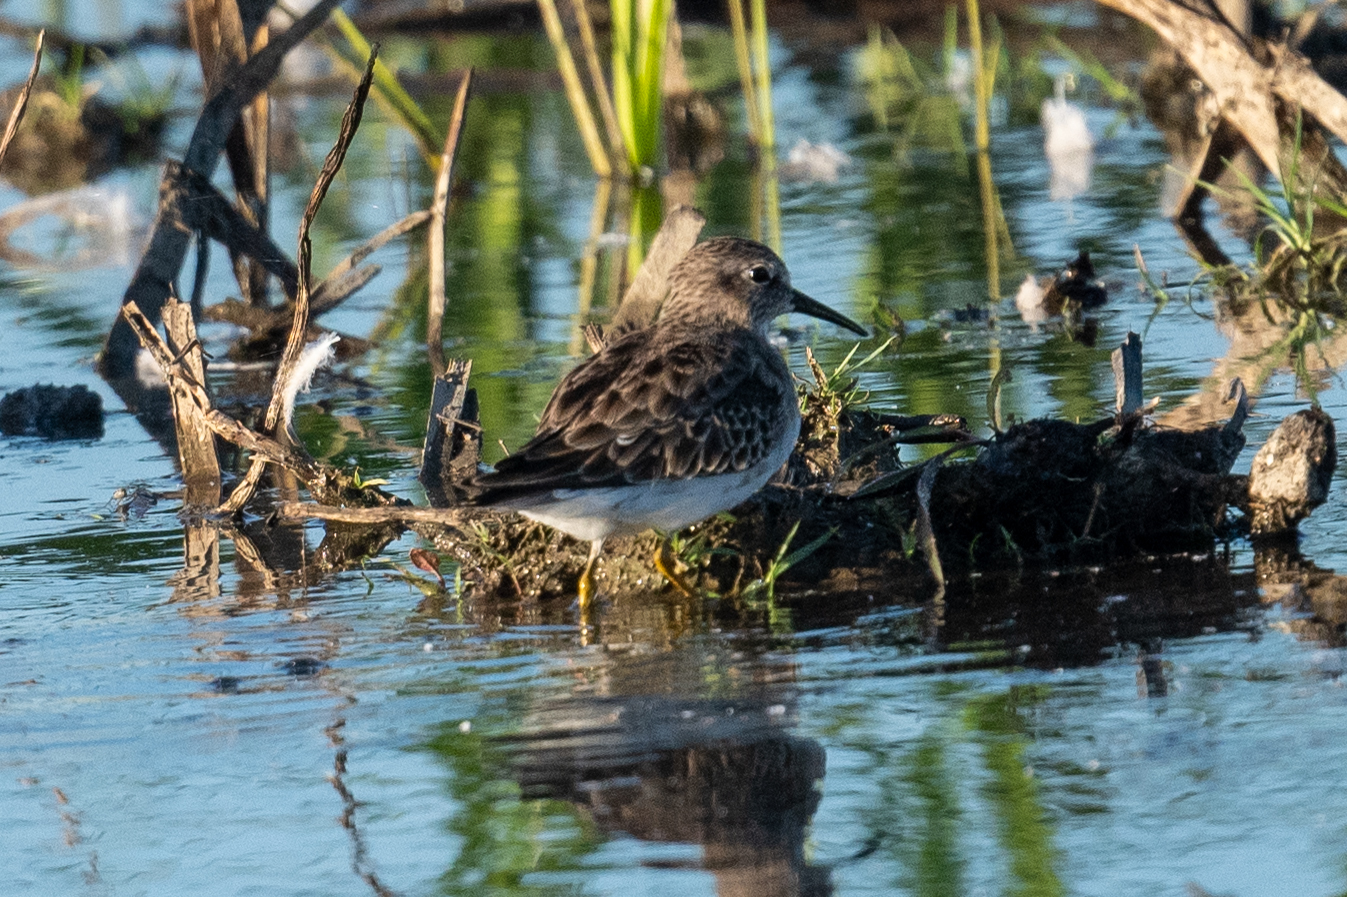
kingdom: Animalia
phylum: Chordata
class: Aves
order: Charadriiformes
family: Scolopacidae
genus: Calidris
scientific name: Calidris minutilla
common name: Least sandpiper
